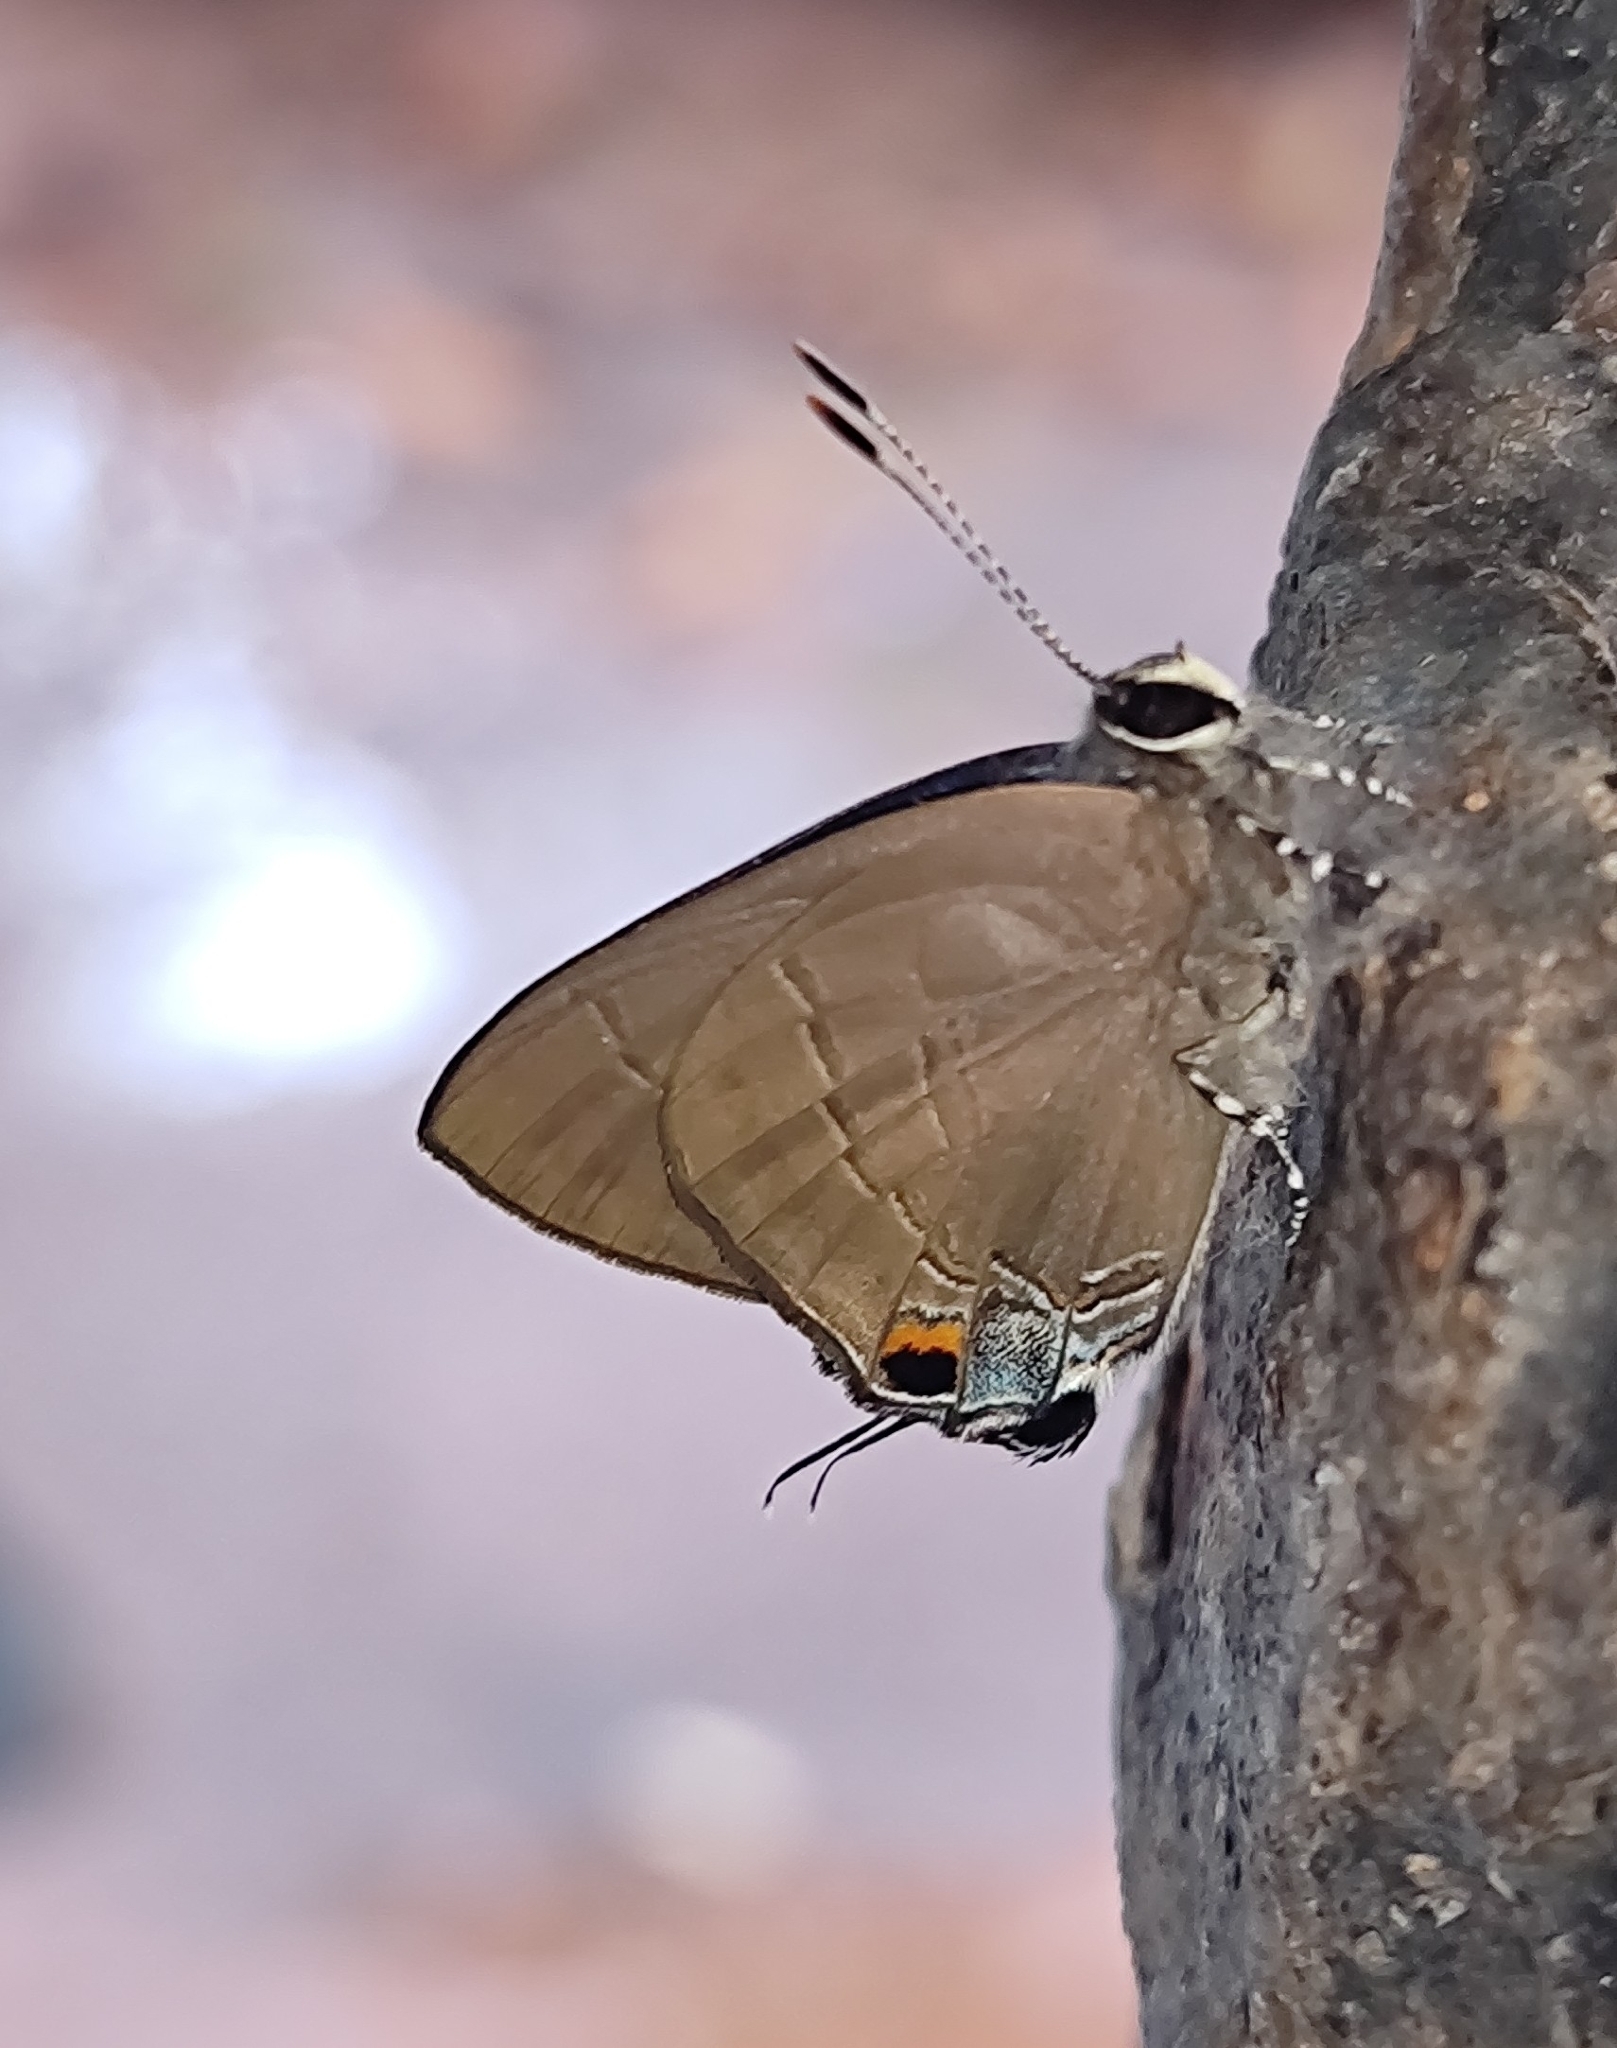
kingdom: Animalia
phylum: Arthropoda
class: Insecta
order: Lepidoptera
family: Lycaenidae
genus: Rapala
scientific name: Rapala manea
